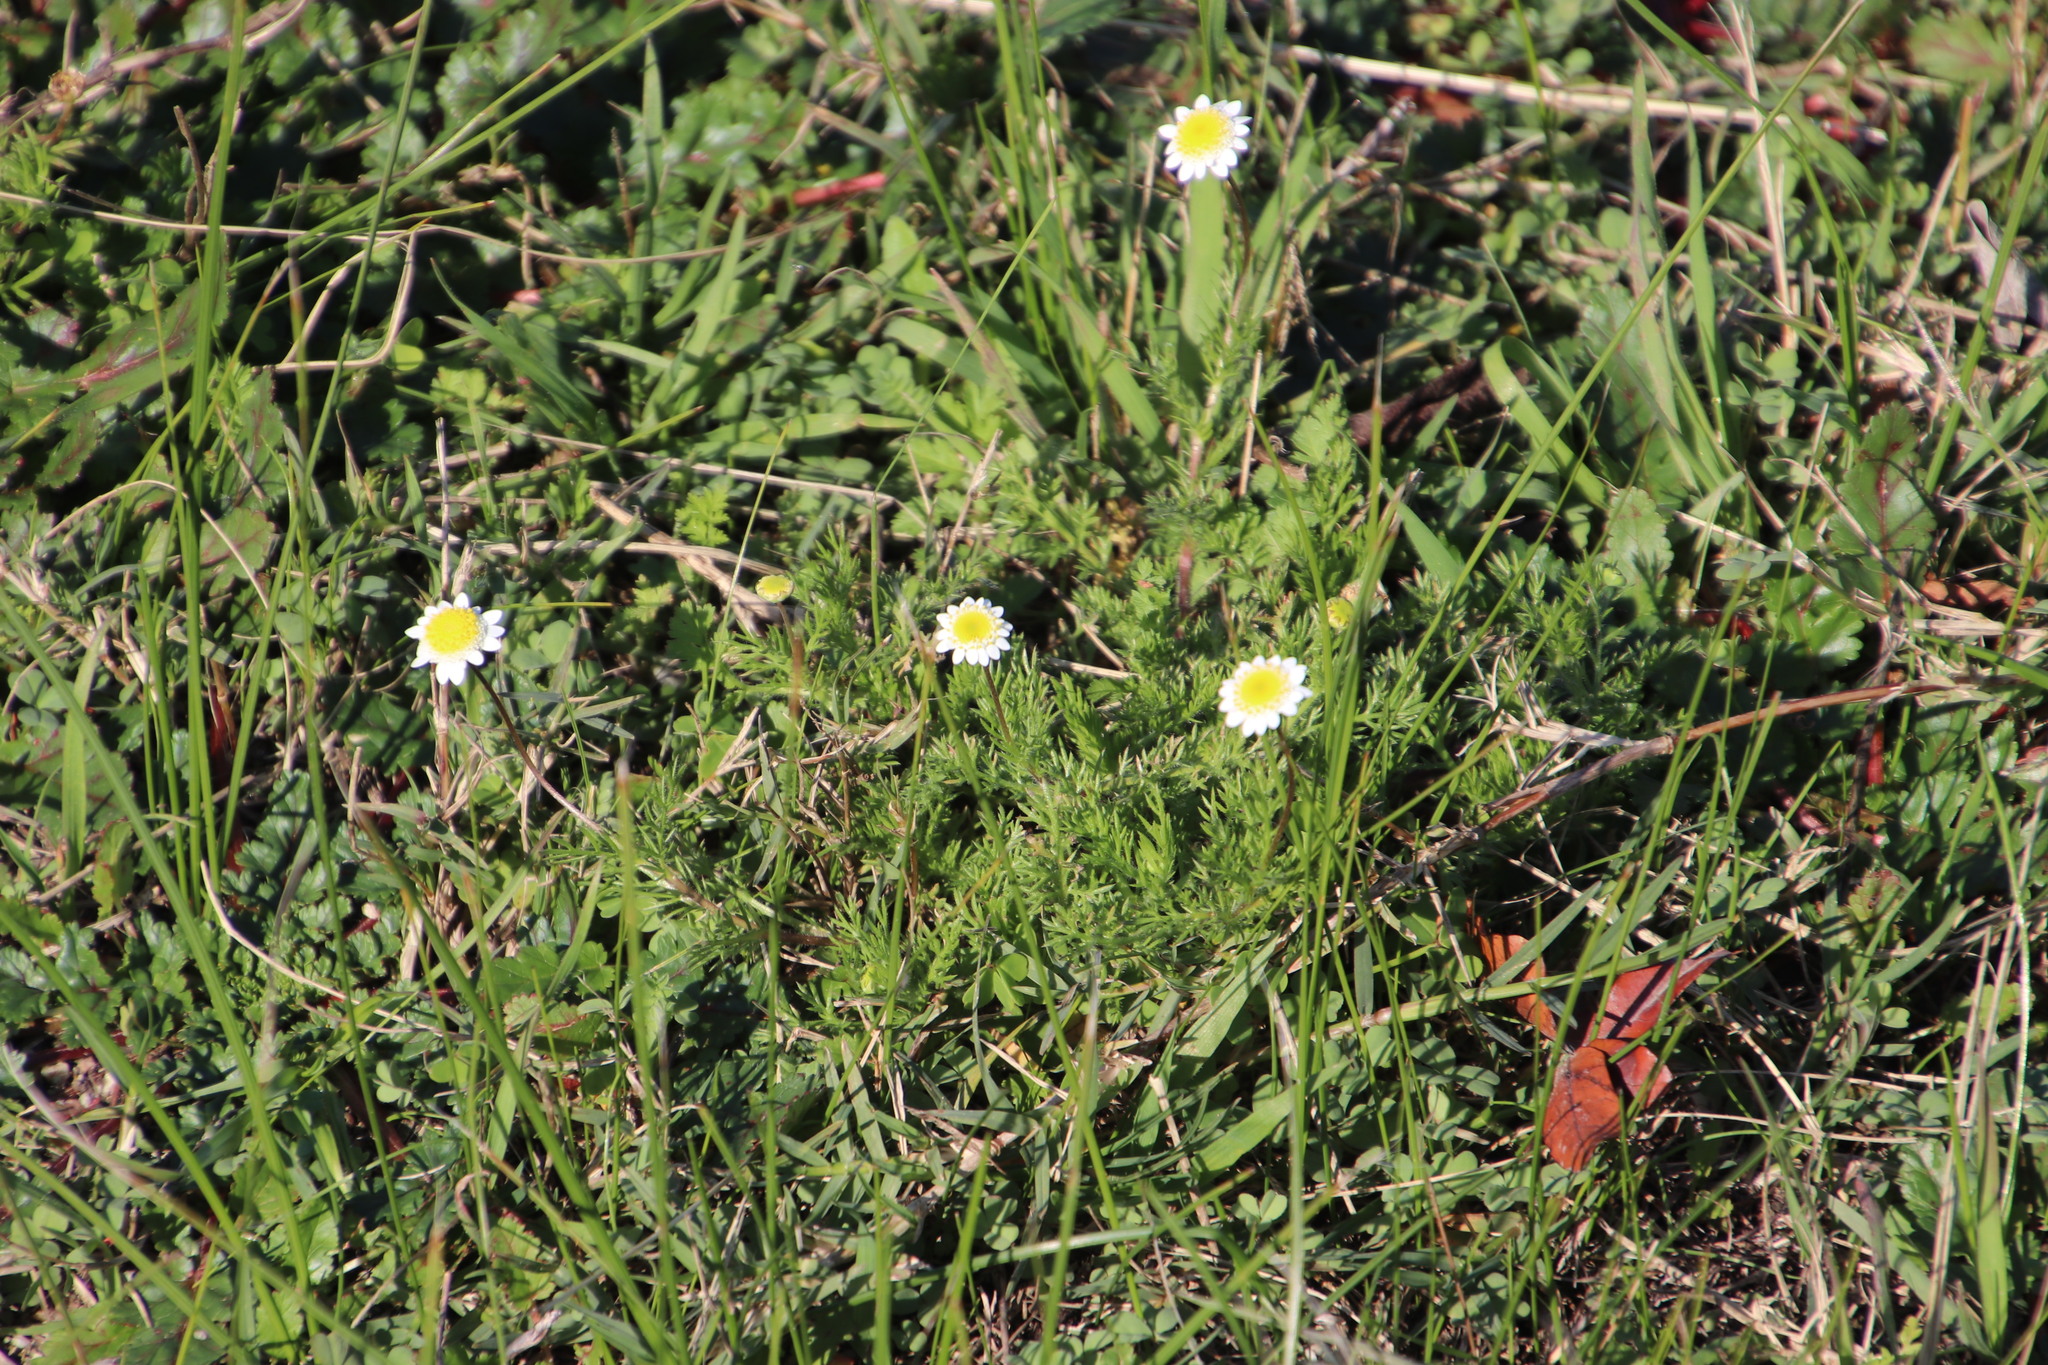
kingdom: Plantae
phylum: Tracheophyta
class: Magnoliopsida
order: Asterales
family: Asteraceae
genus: Cotula
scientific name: Cotula turbinata
